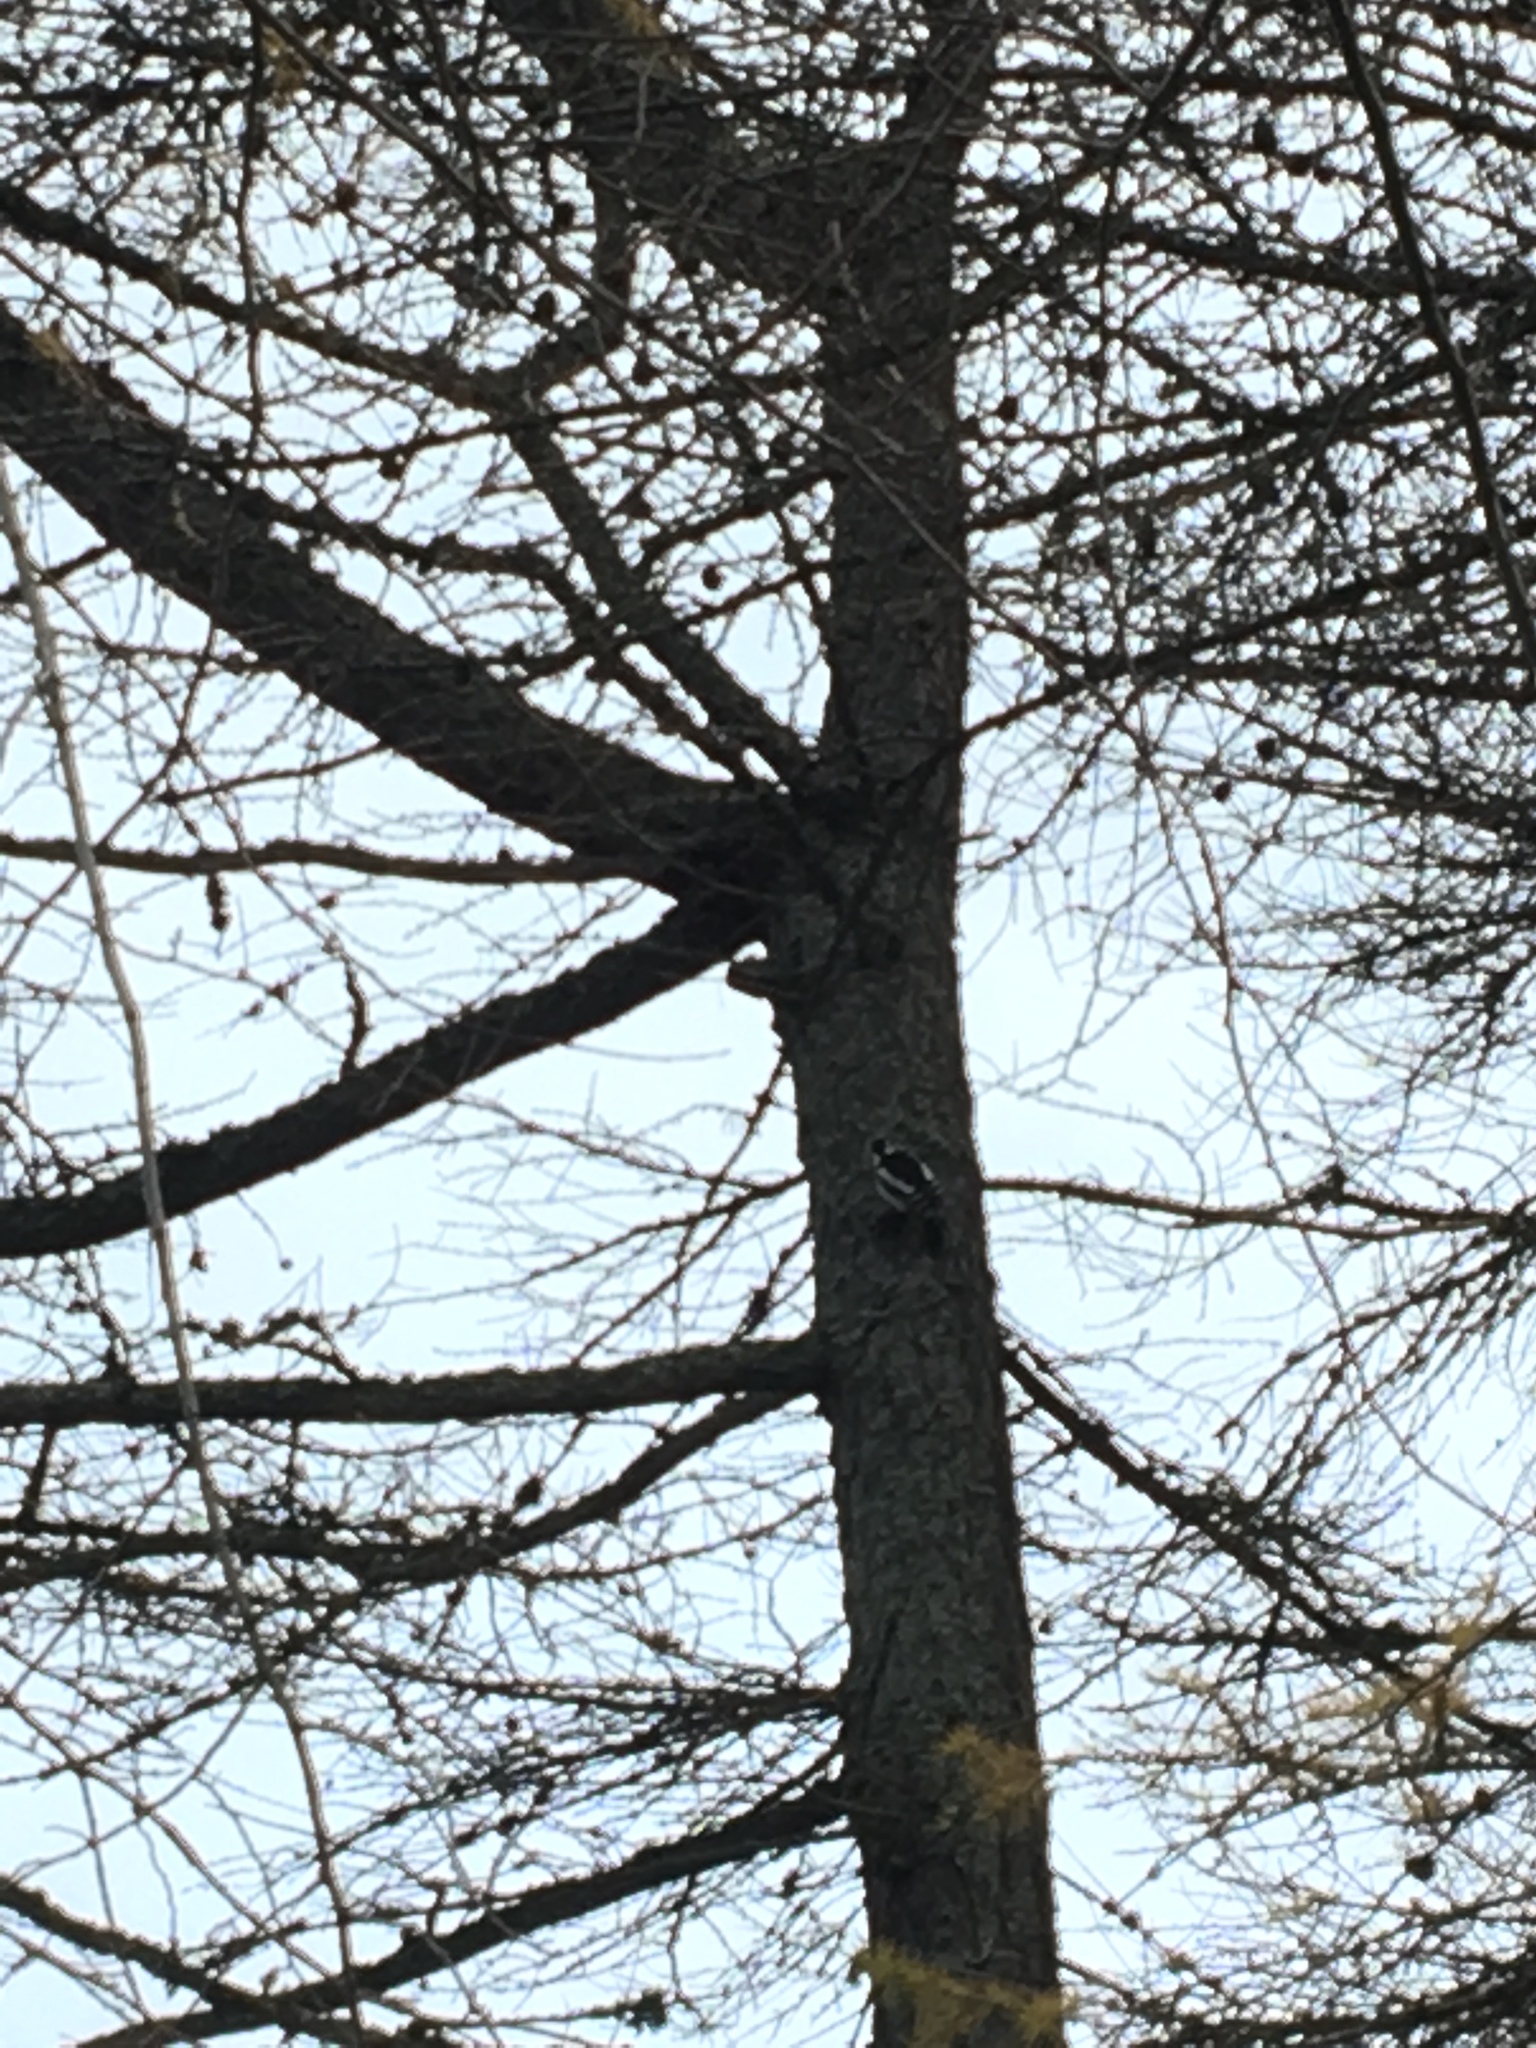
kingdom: Animalia
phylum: Chordata
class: Aves
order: Piciformes
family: Picidae
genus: Dendrocopos
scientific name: Dendrocopos major
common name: Great spotted woodpecker
